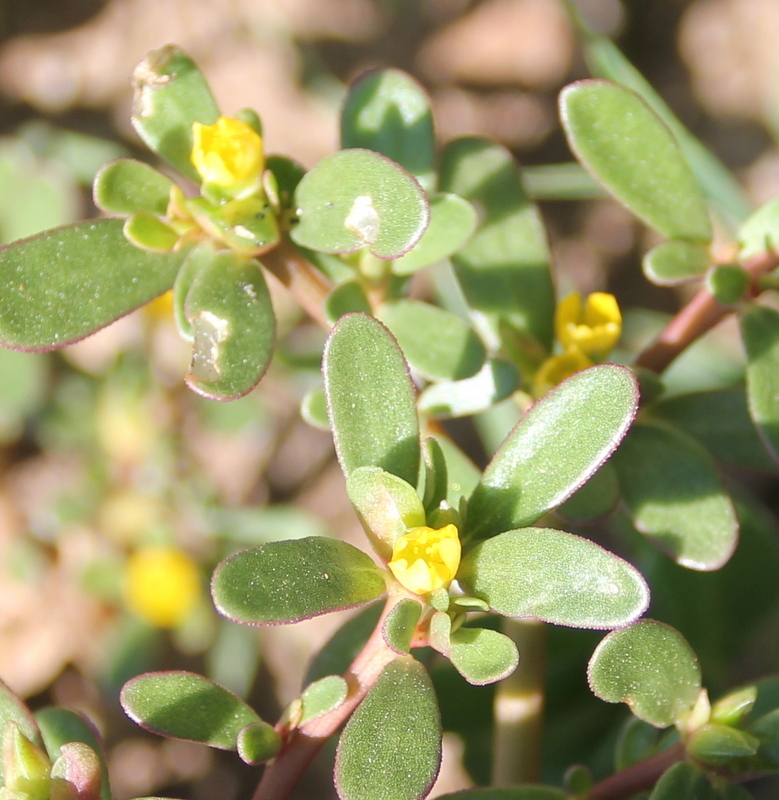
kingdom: Plantae
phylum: Tracheophyta
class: Magnoliopsida
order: Caryophyllales
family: Portulacaceae
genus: Portulaca
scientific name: Portulaca oleracea
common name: Common purslane
